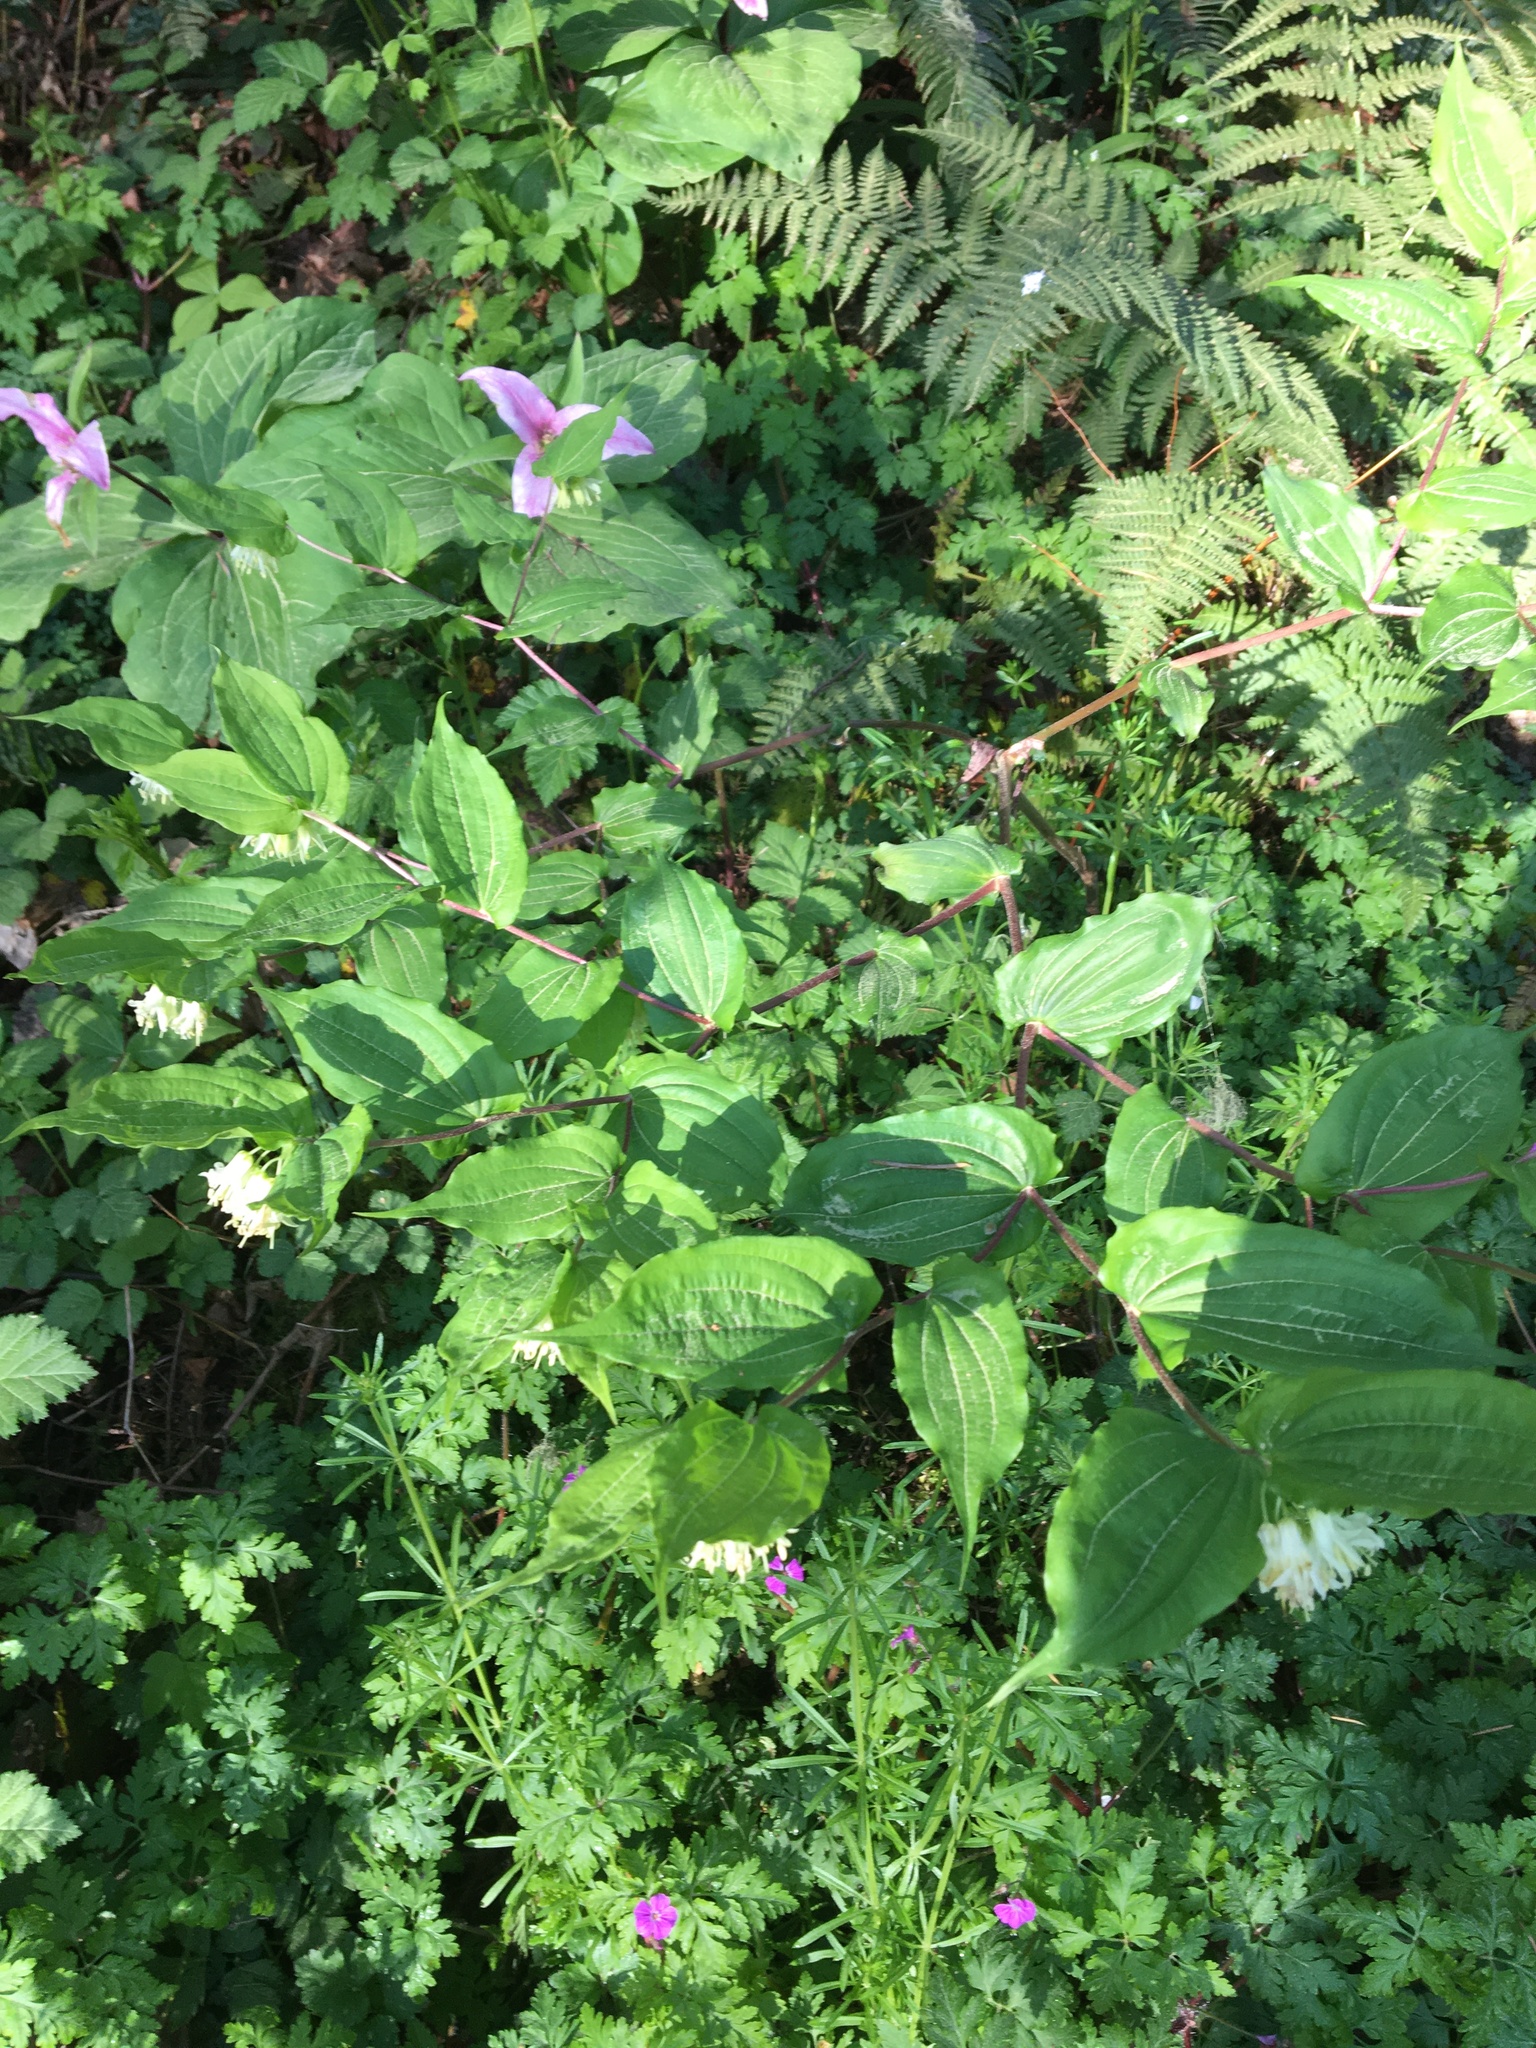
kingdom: Plantae
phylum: Tracheophyta
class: Liliopsida
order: Liliales
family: Liliaceae
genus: Prosartes
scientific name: Prosartes hookeri
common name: Fairy-bells
